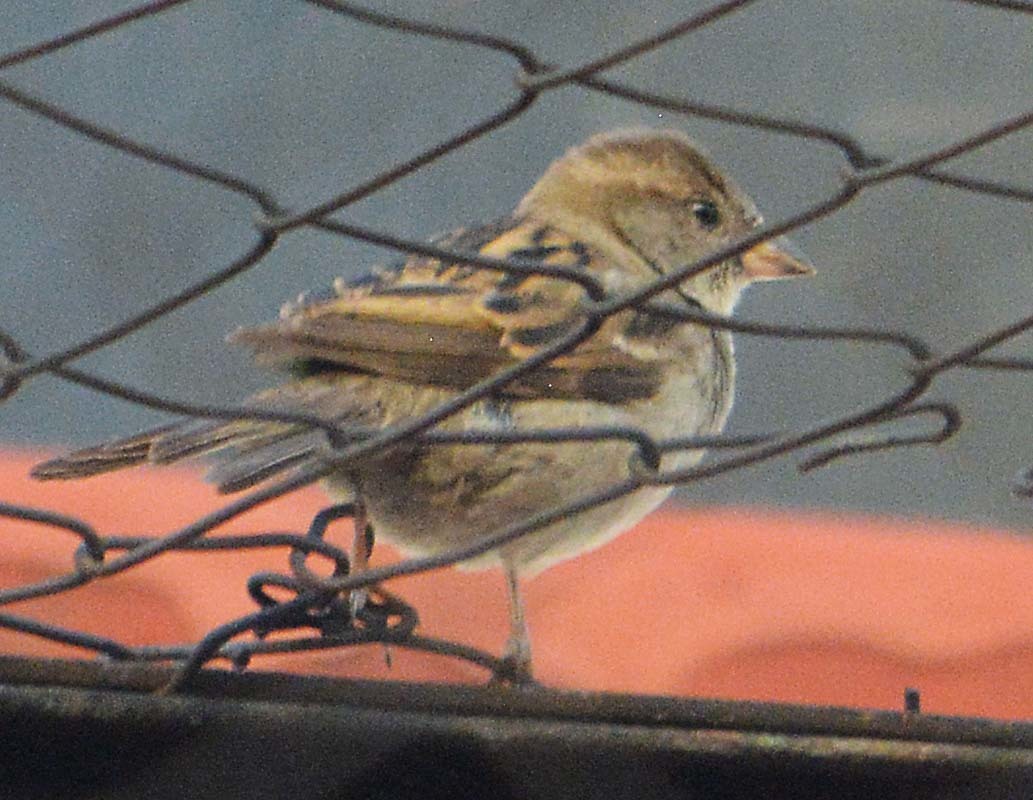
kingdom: Animalia
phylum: Chordata
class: Aves
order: Passeriformes
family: Passeridae
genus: Passer
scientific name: Passer domesticus
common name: House sparrow
